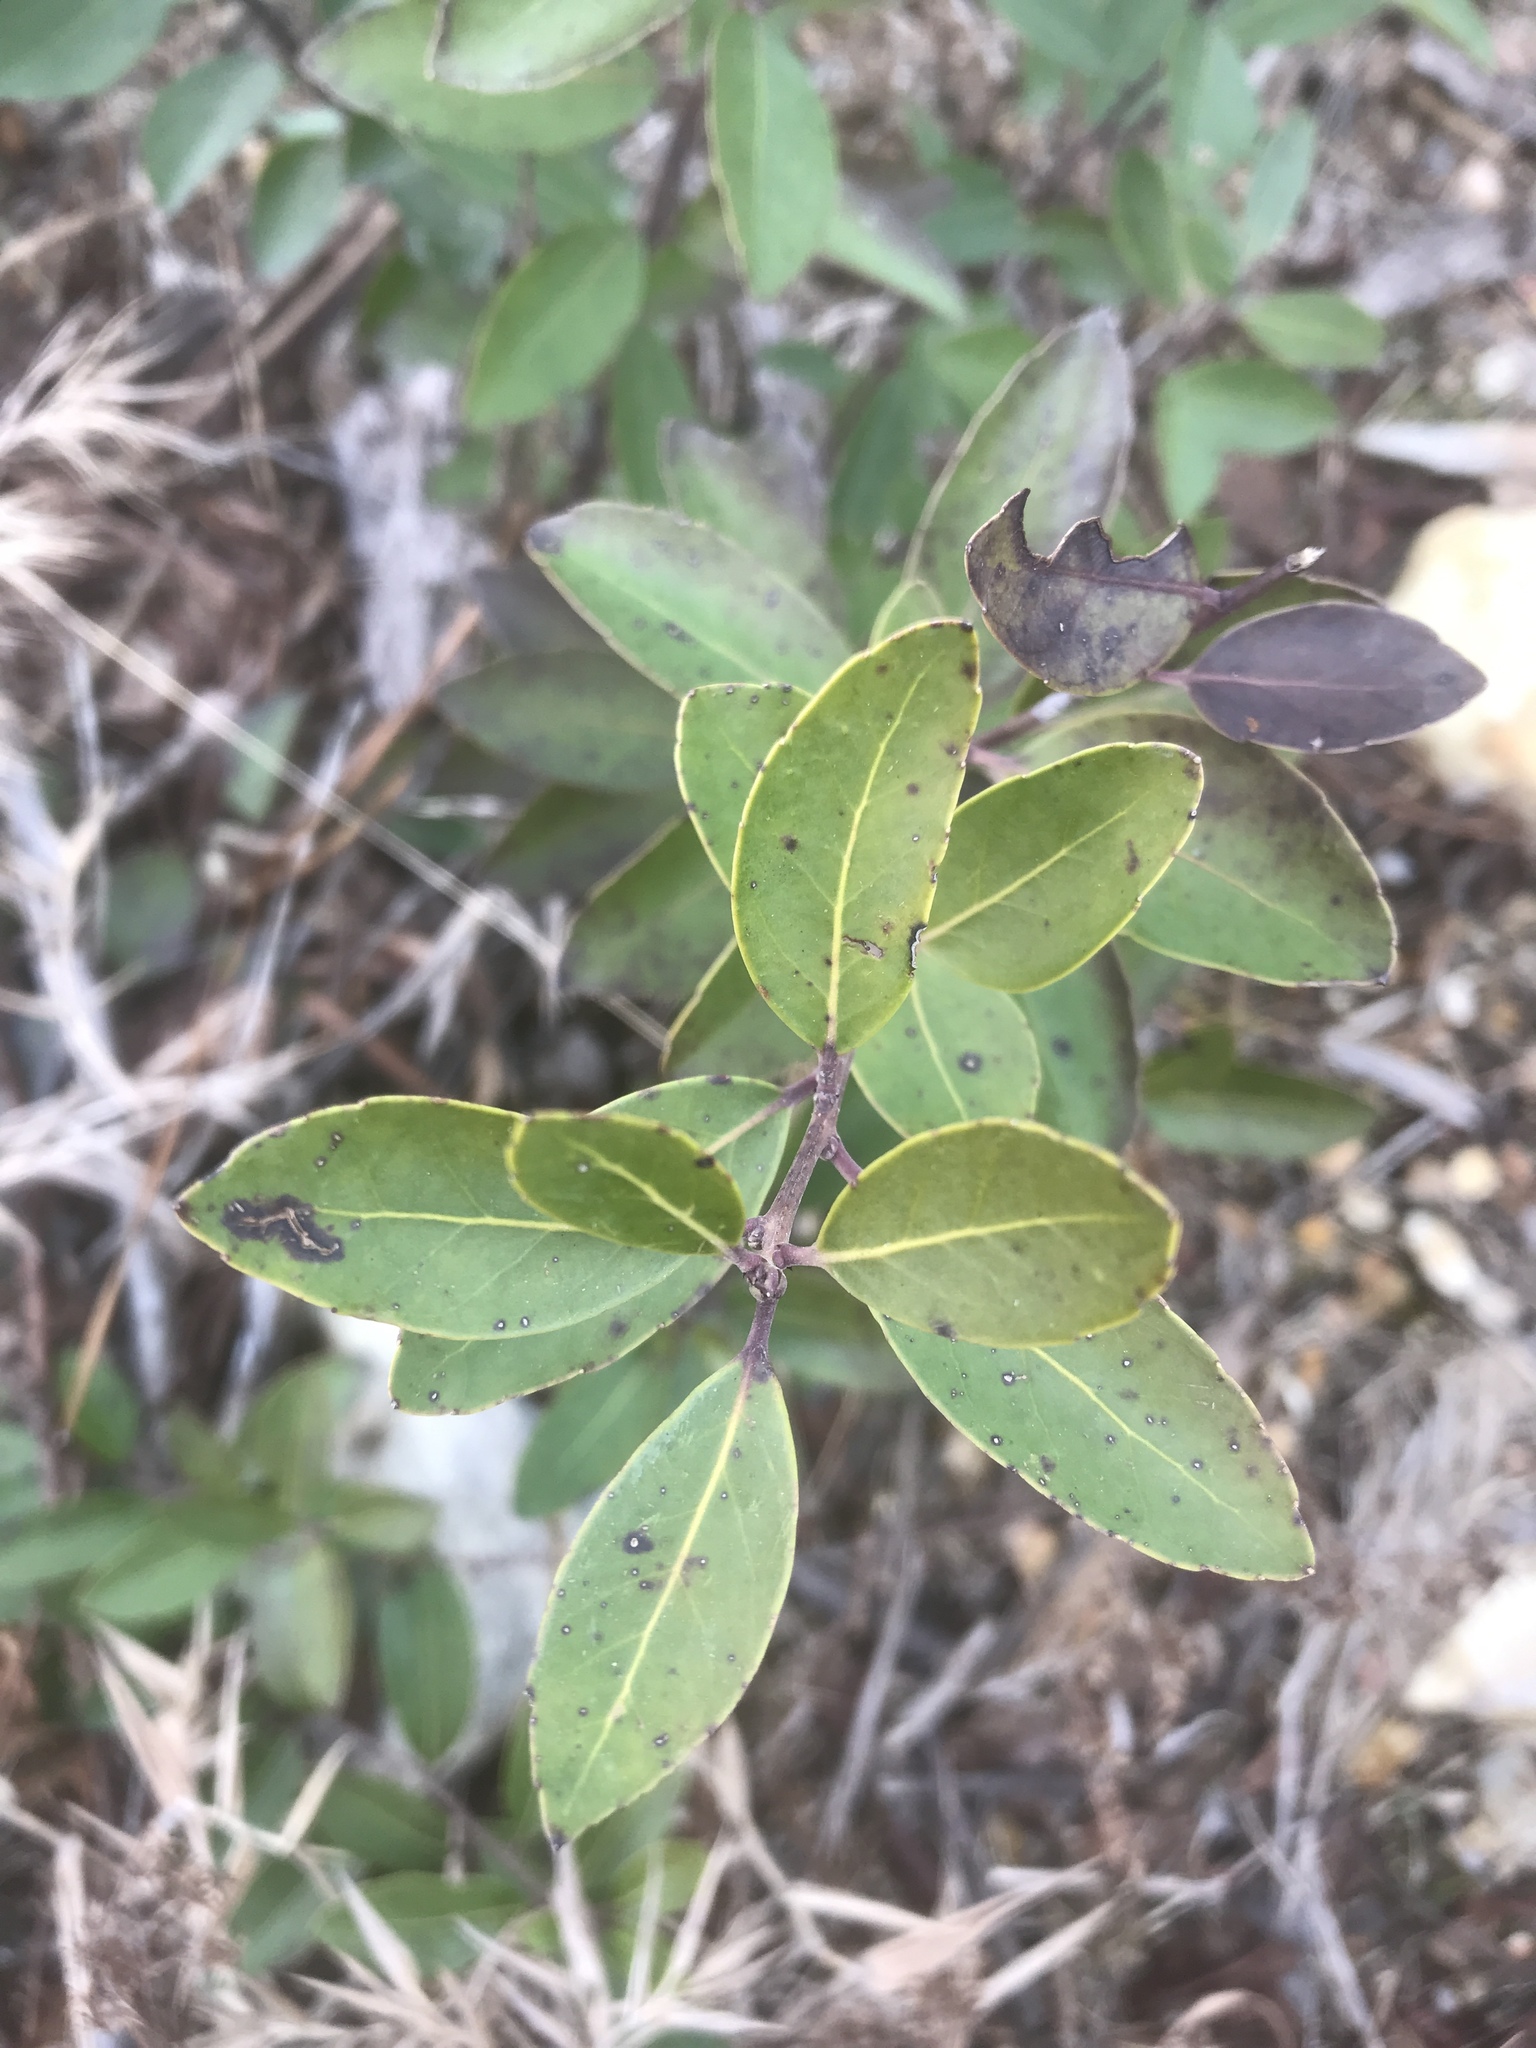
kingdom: Plantae
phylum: Tracheophyta
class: Magnoliopsida
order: Aquifoliales
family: Aquifoliaceae
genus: Ilex
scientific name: Ilex glabra
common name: Bitter gallberry
